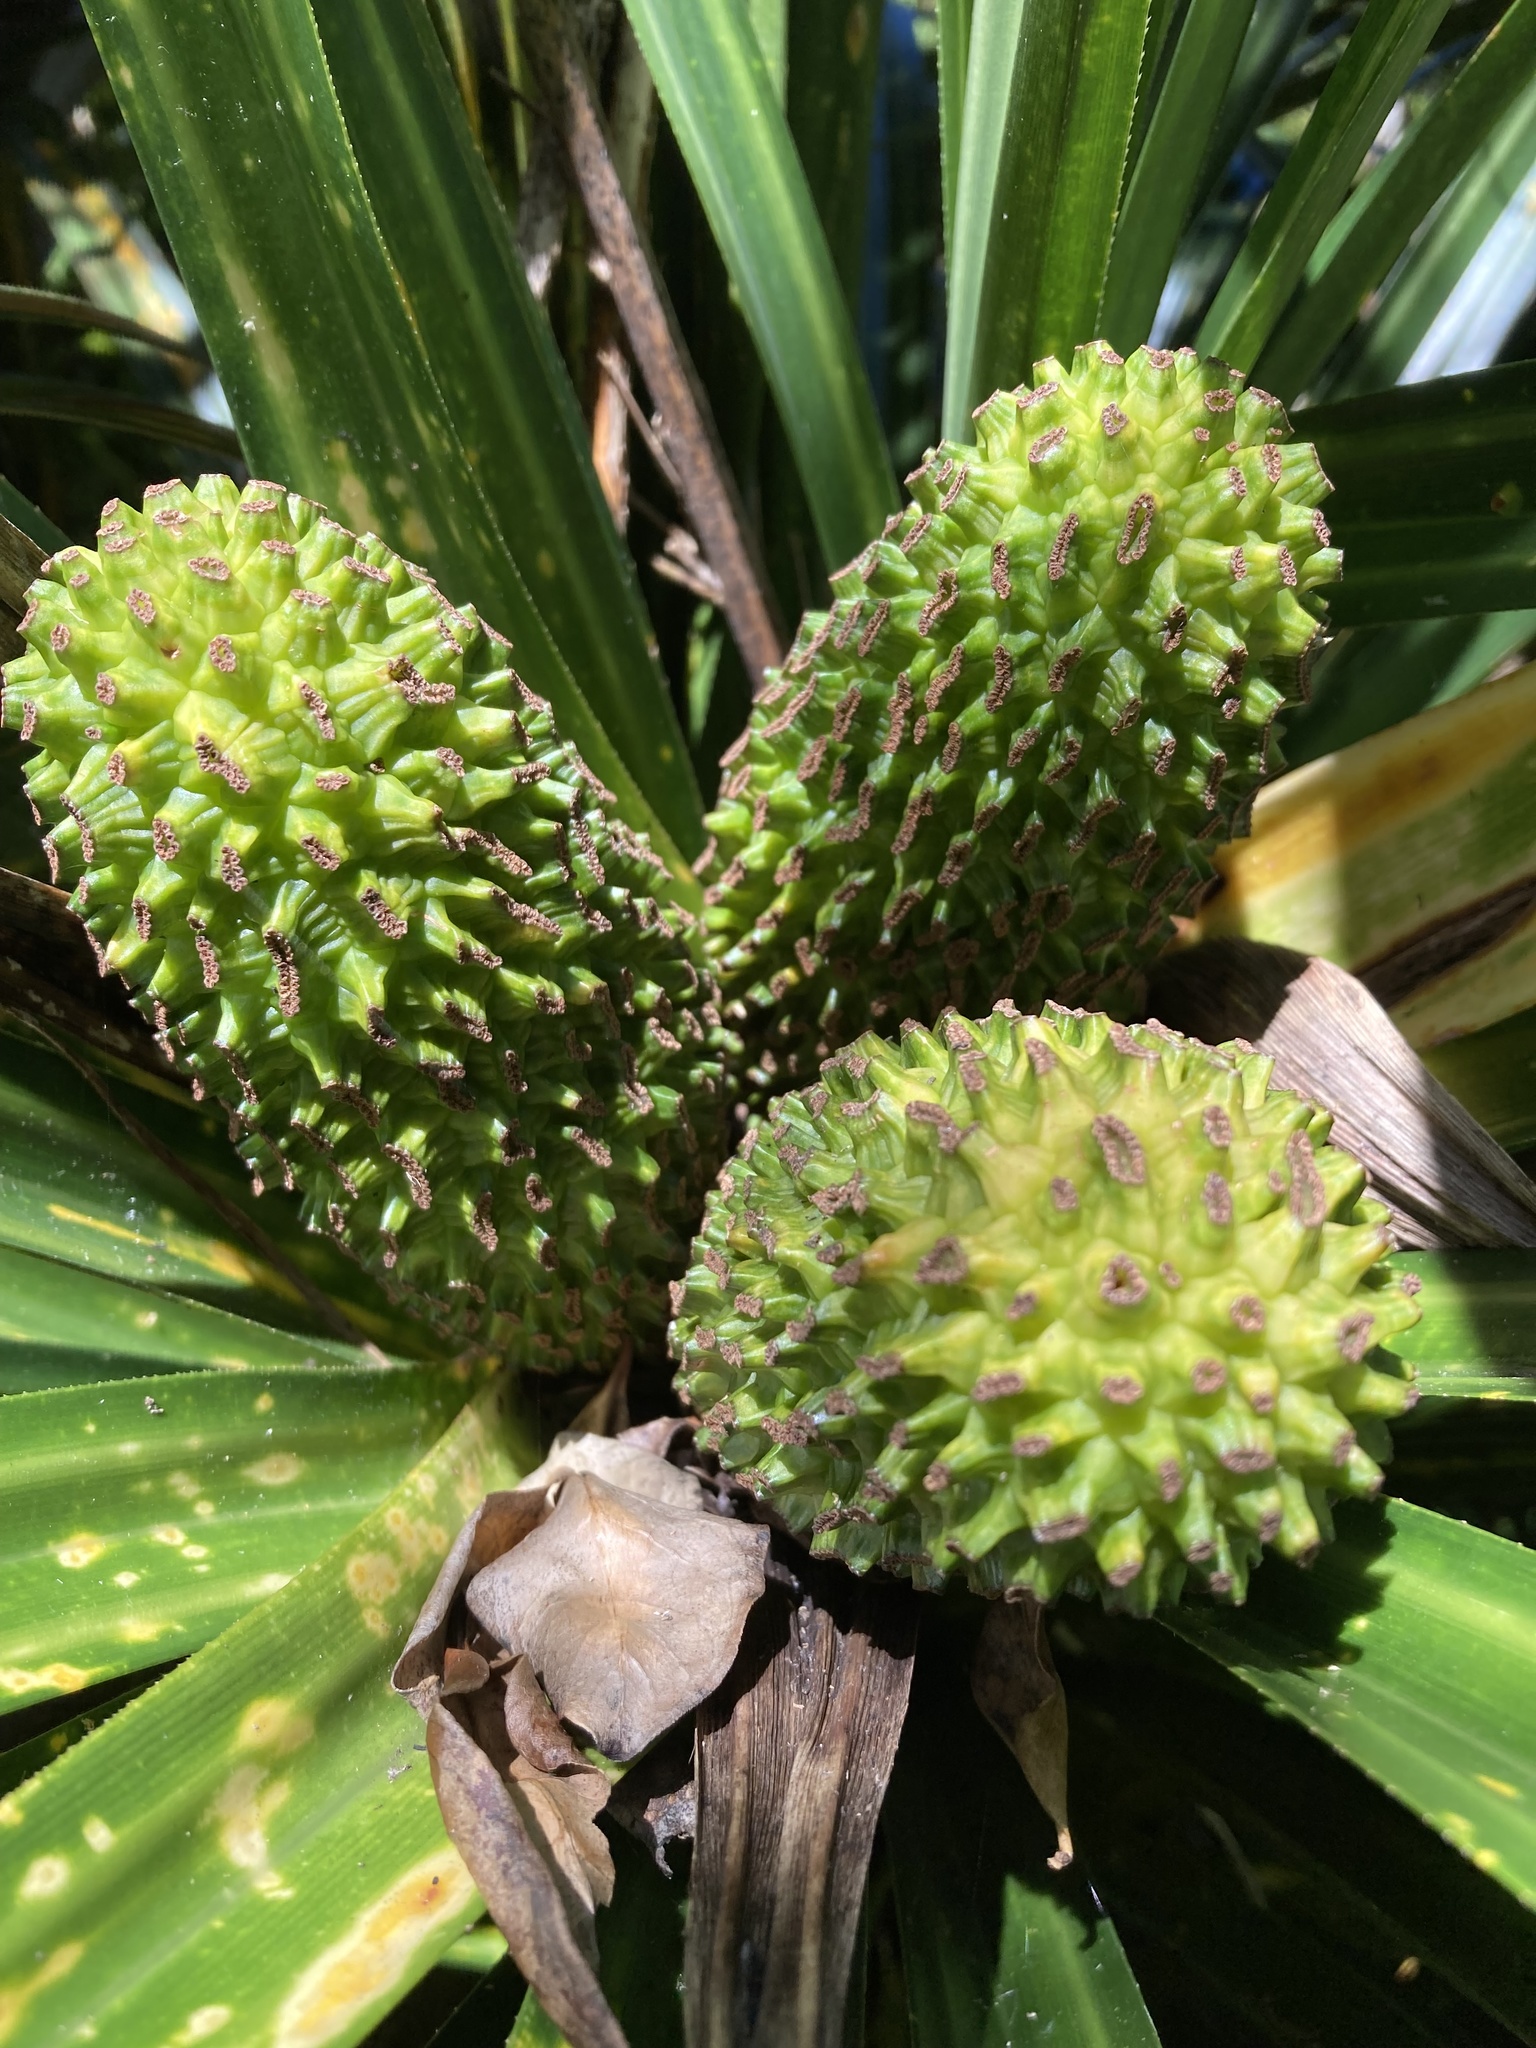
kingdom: Plantae
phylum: Tracheophyta
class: Liliopsida
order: Pandanales
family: Pandanaceae
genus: Freycinetia
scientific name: Freycinetia banksii
